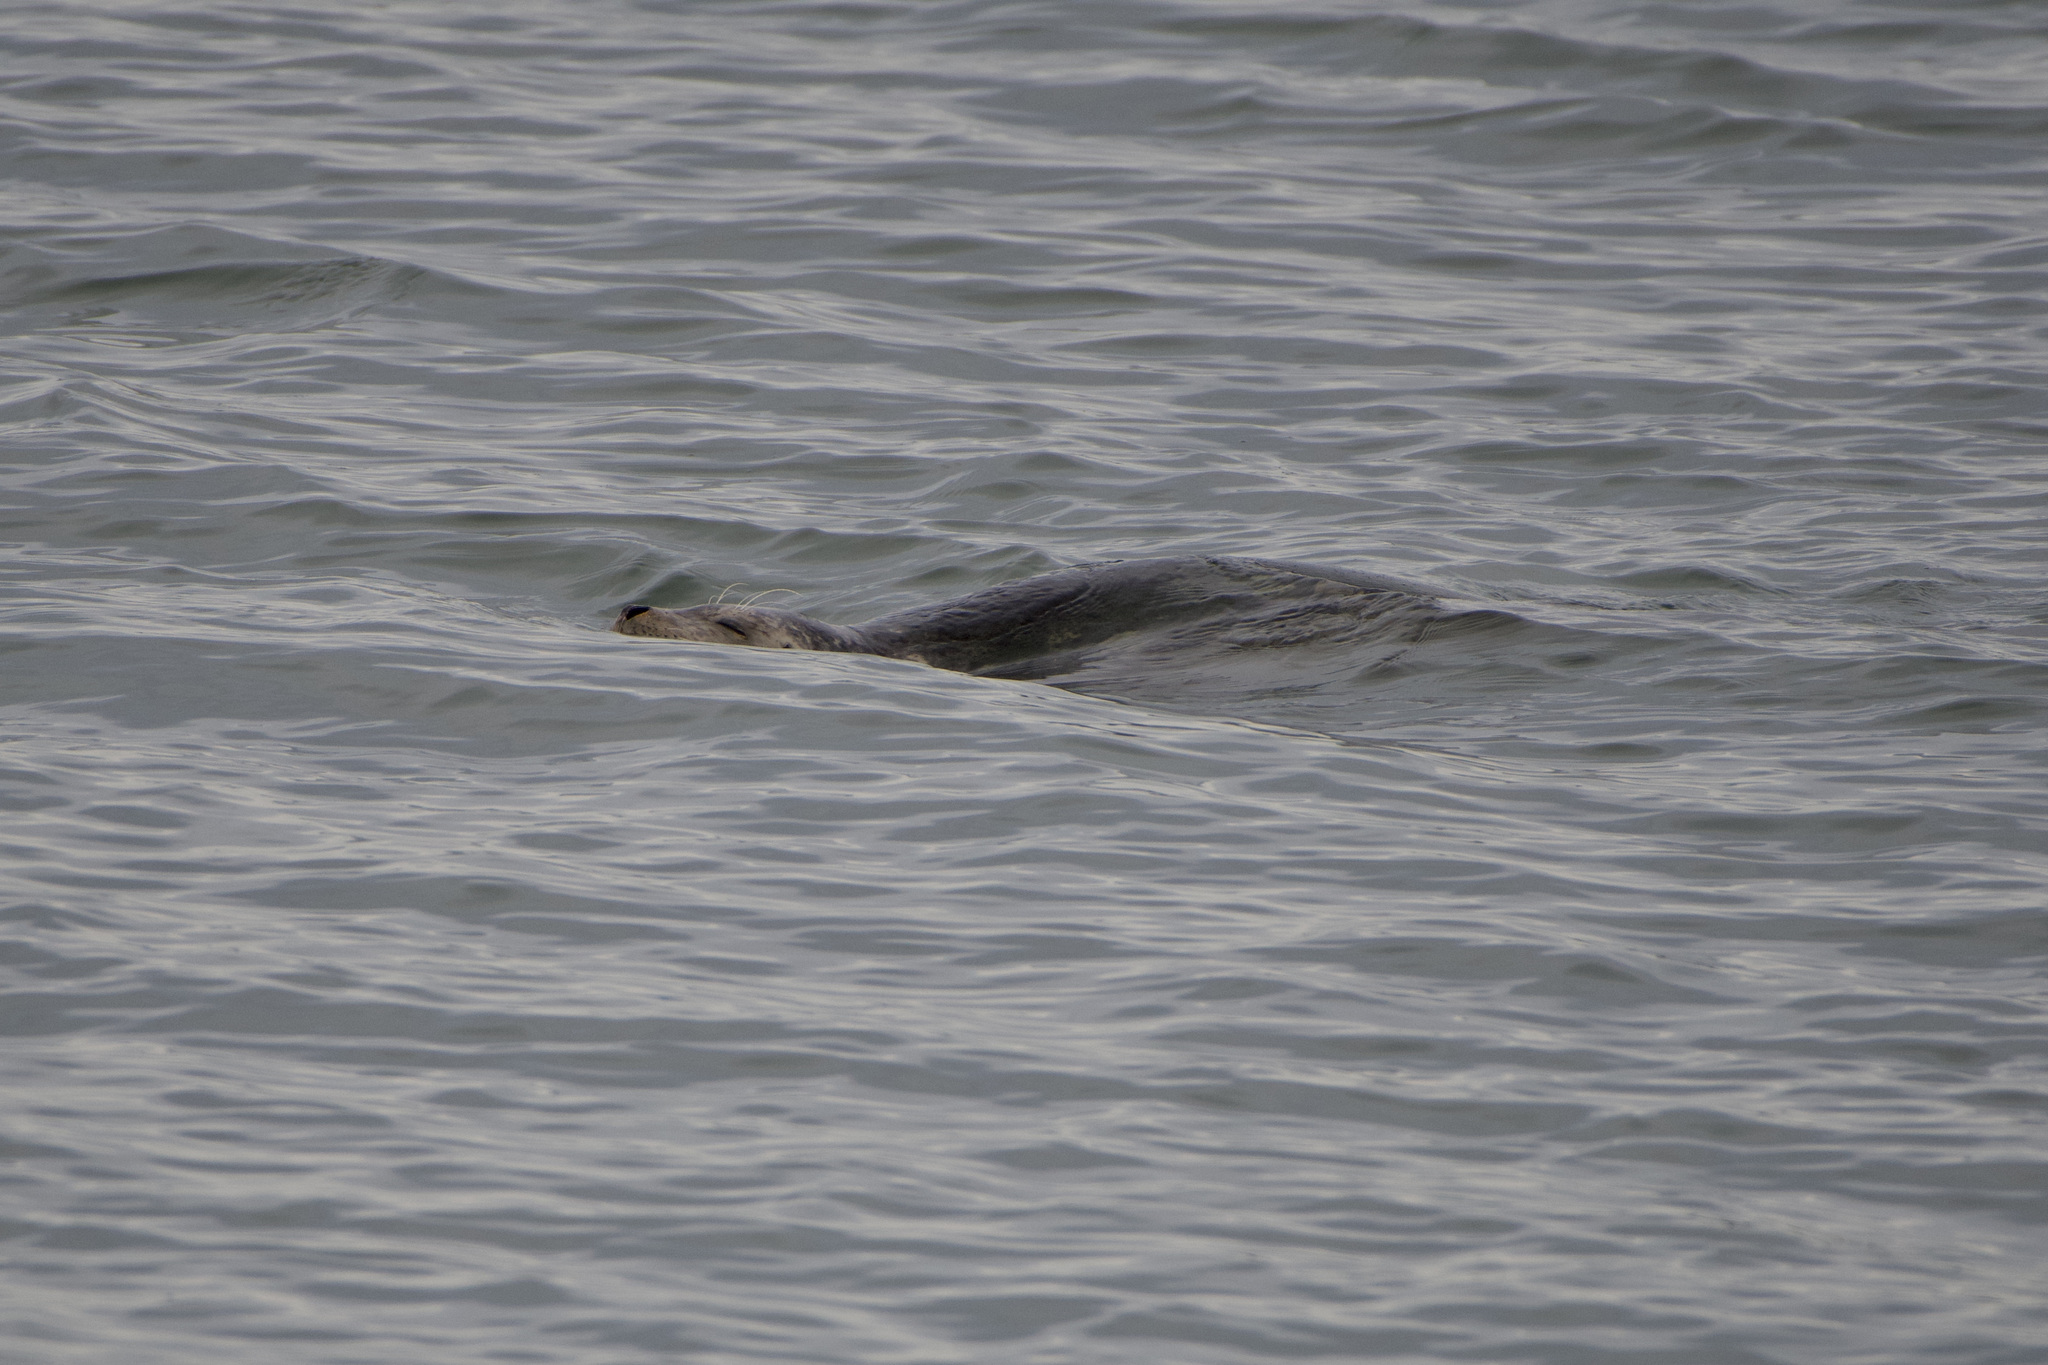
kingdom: Animalia
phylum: Chordata
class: Mammalia
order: Carnivora
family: Phocidae
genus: Phoca
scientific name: Phoca vitulina
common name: Harbor seal
